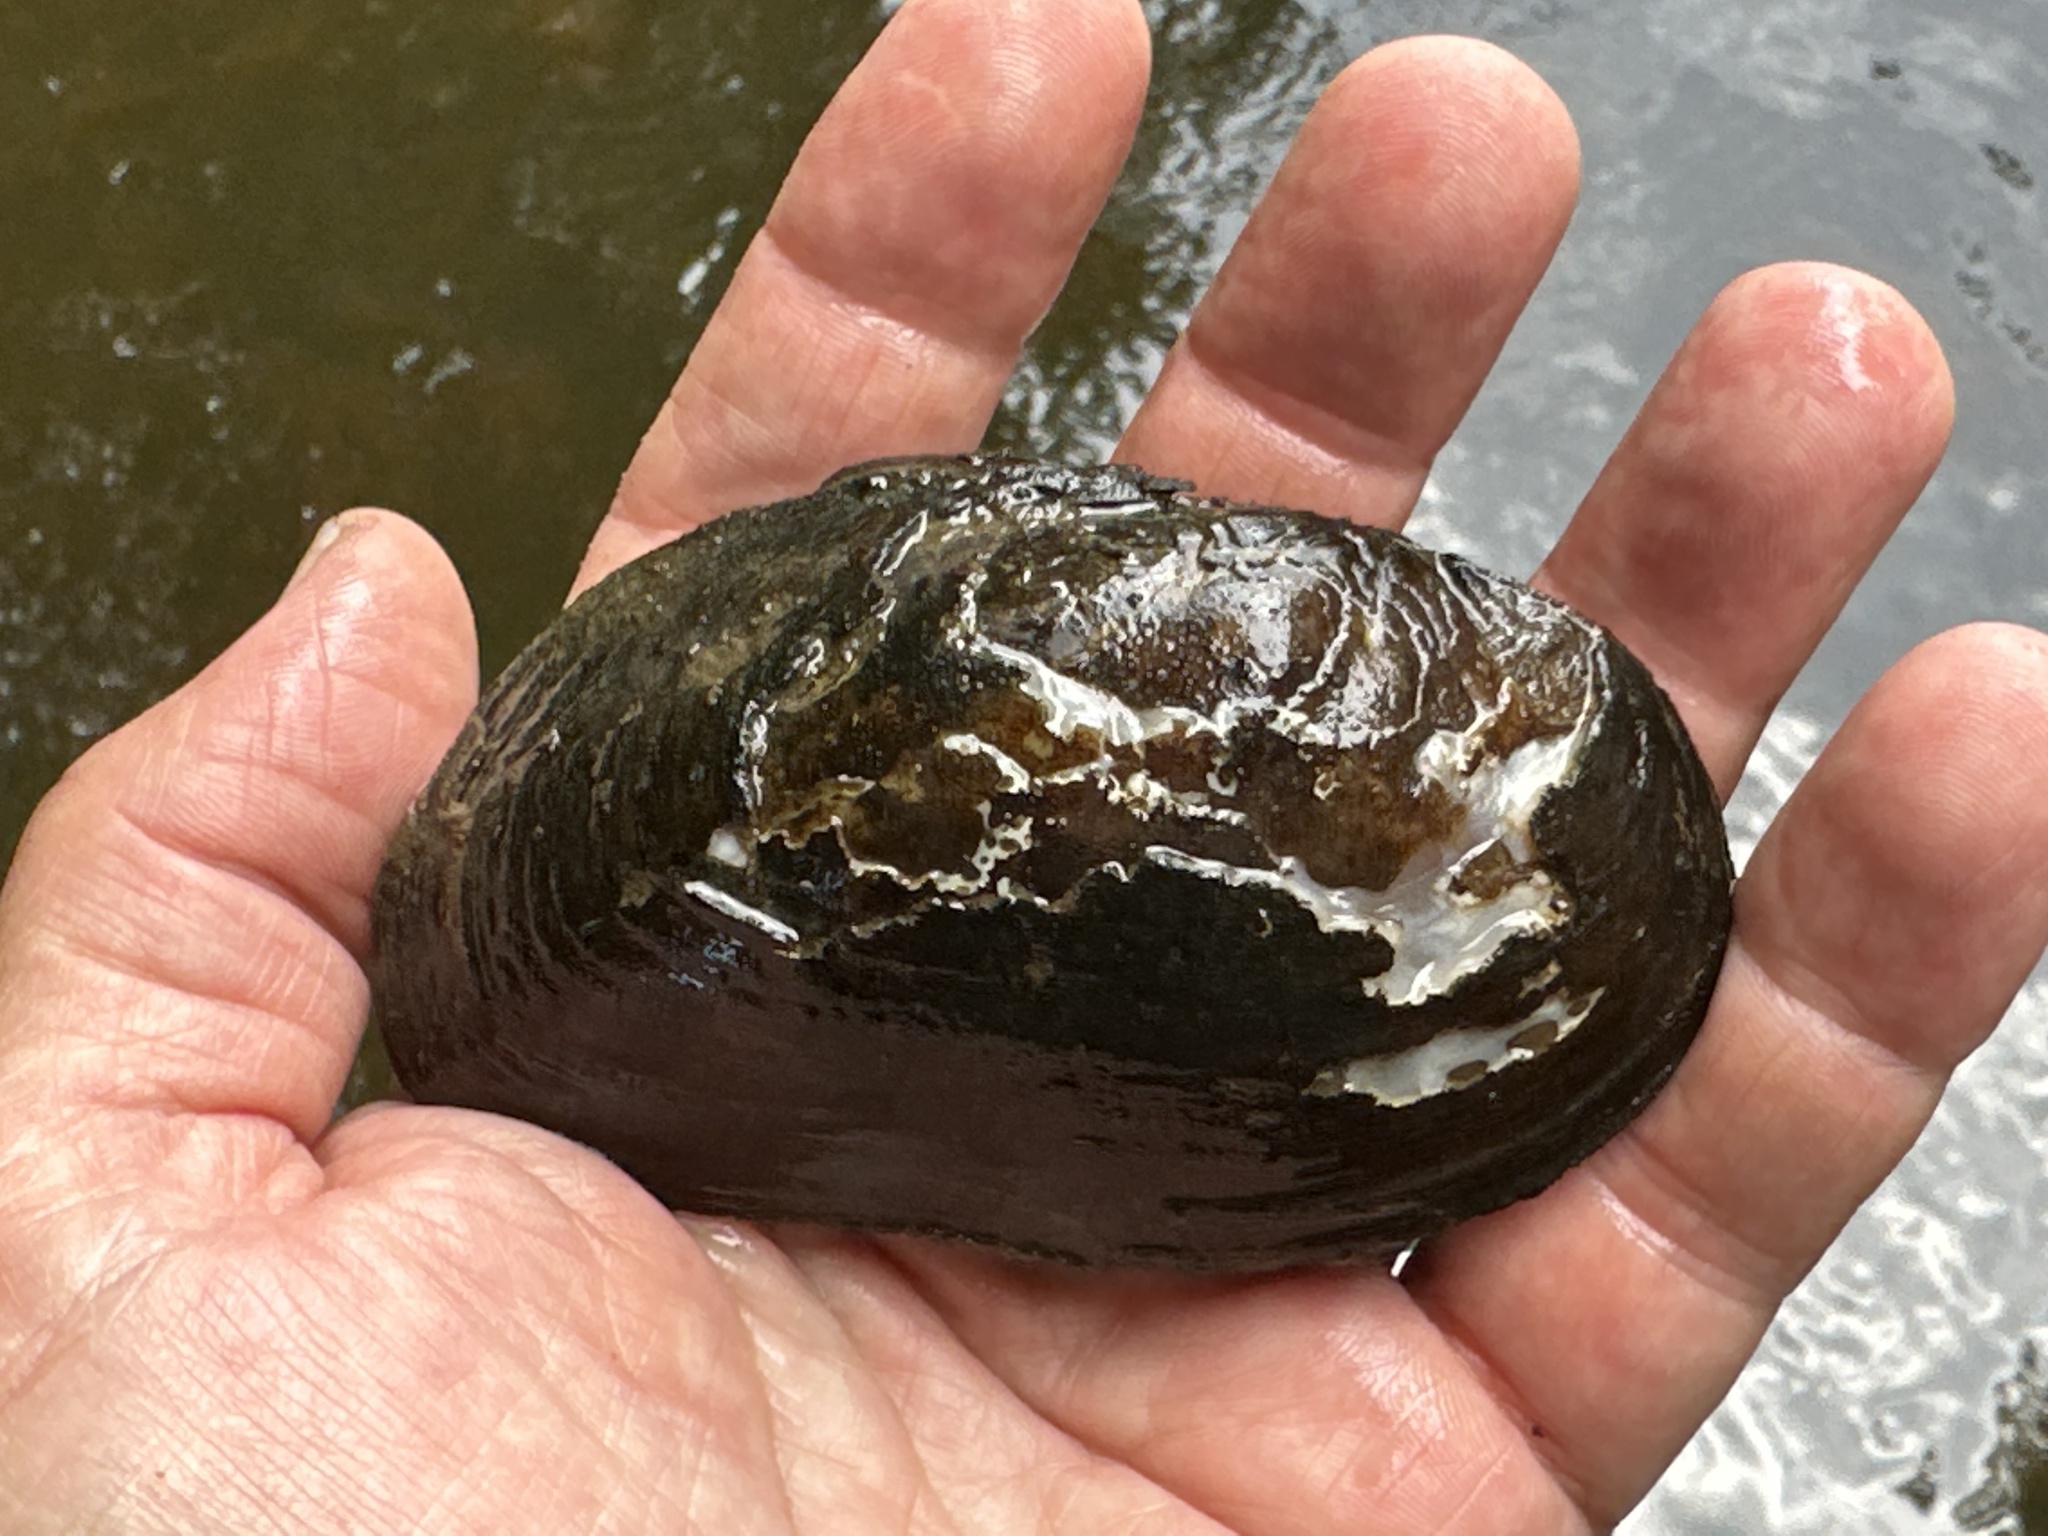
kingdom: Animalia
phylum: Mollusca
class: Bivalvia
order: Unionida
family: Unionidae
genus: Elliptio
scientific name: Elliptio complanata
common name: Eastern elliptio
